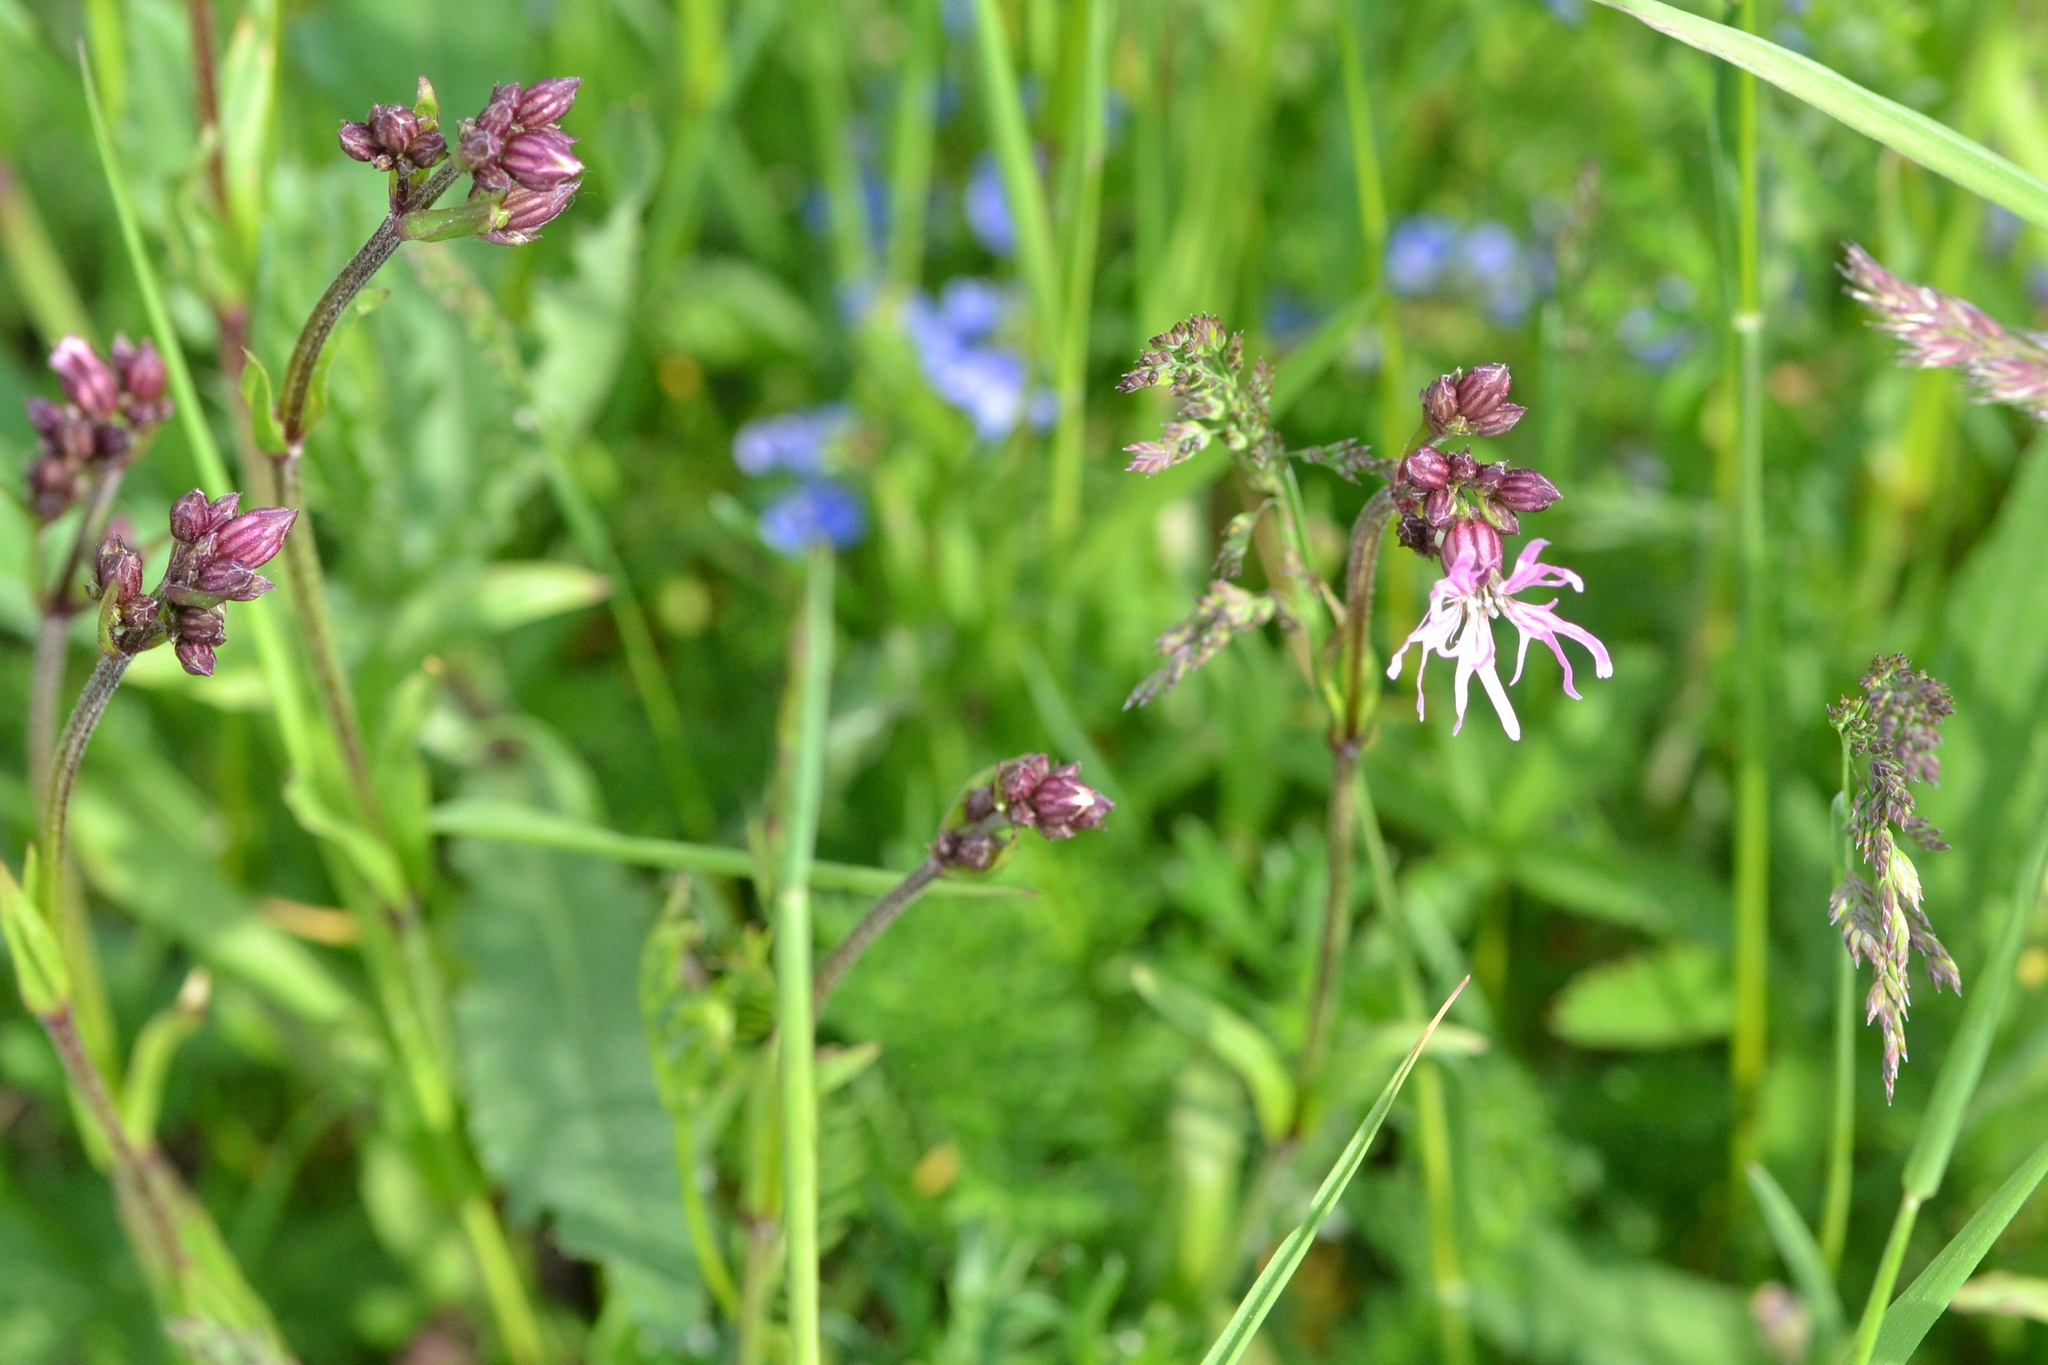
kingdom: Plantae
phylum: Tracheophyta
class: Magnoliopsida
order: Caryophyllales
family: Caryophyllaceae
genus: Silene
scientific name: Silene flos-cuculi
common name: Ragged-robin
